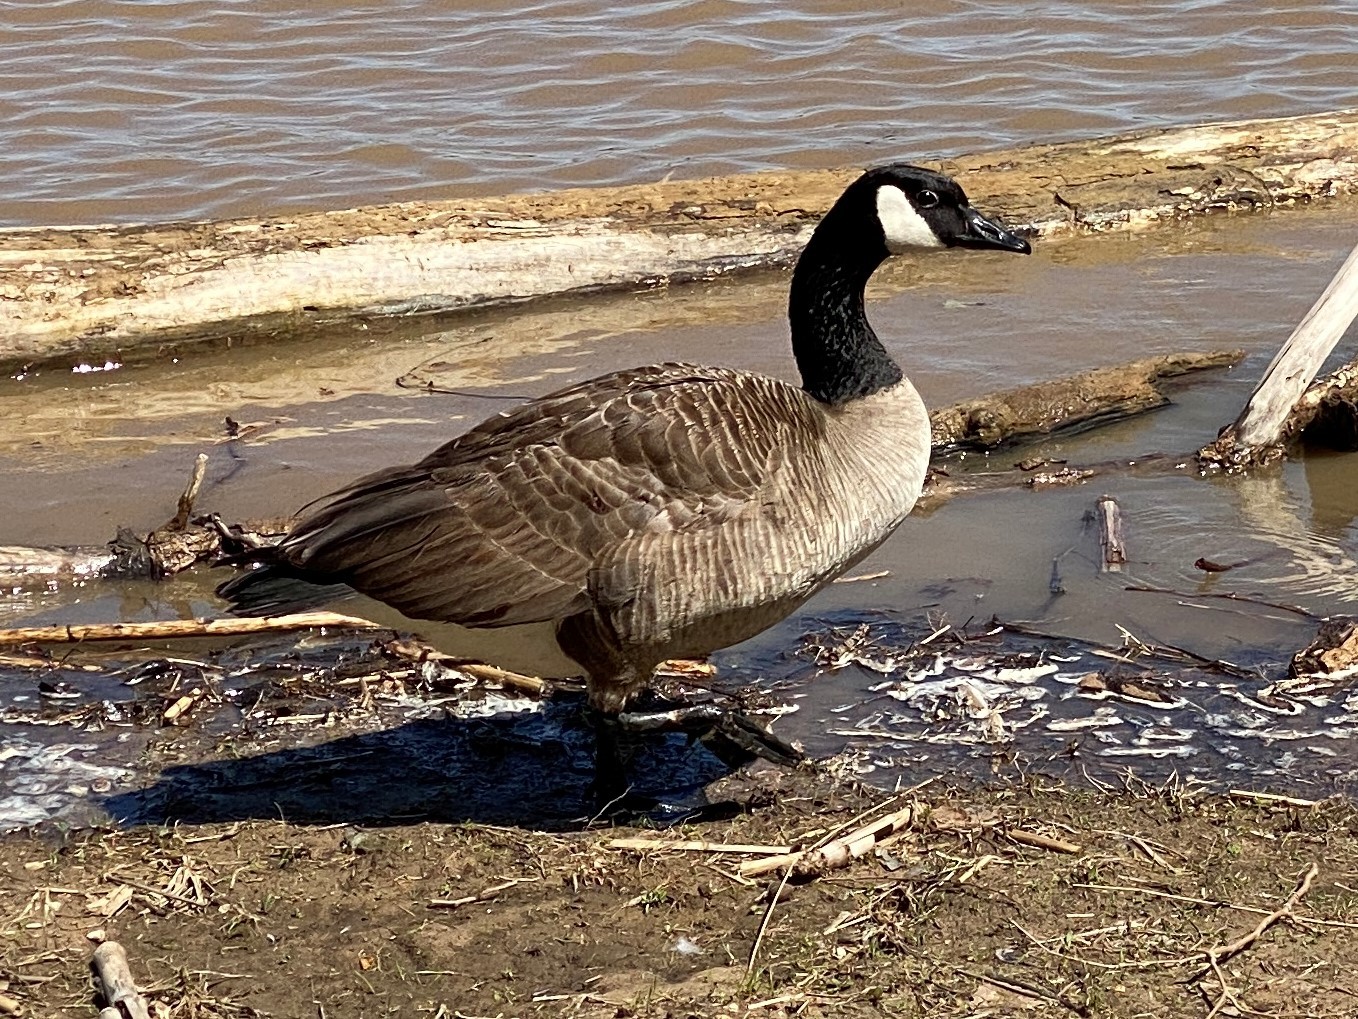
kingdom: Animalia
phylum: Chordata
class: Aves
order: Anseriformes
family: Anatidae
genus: Branta
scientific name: Branta canadensis
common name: Canada goose
